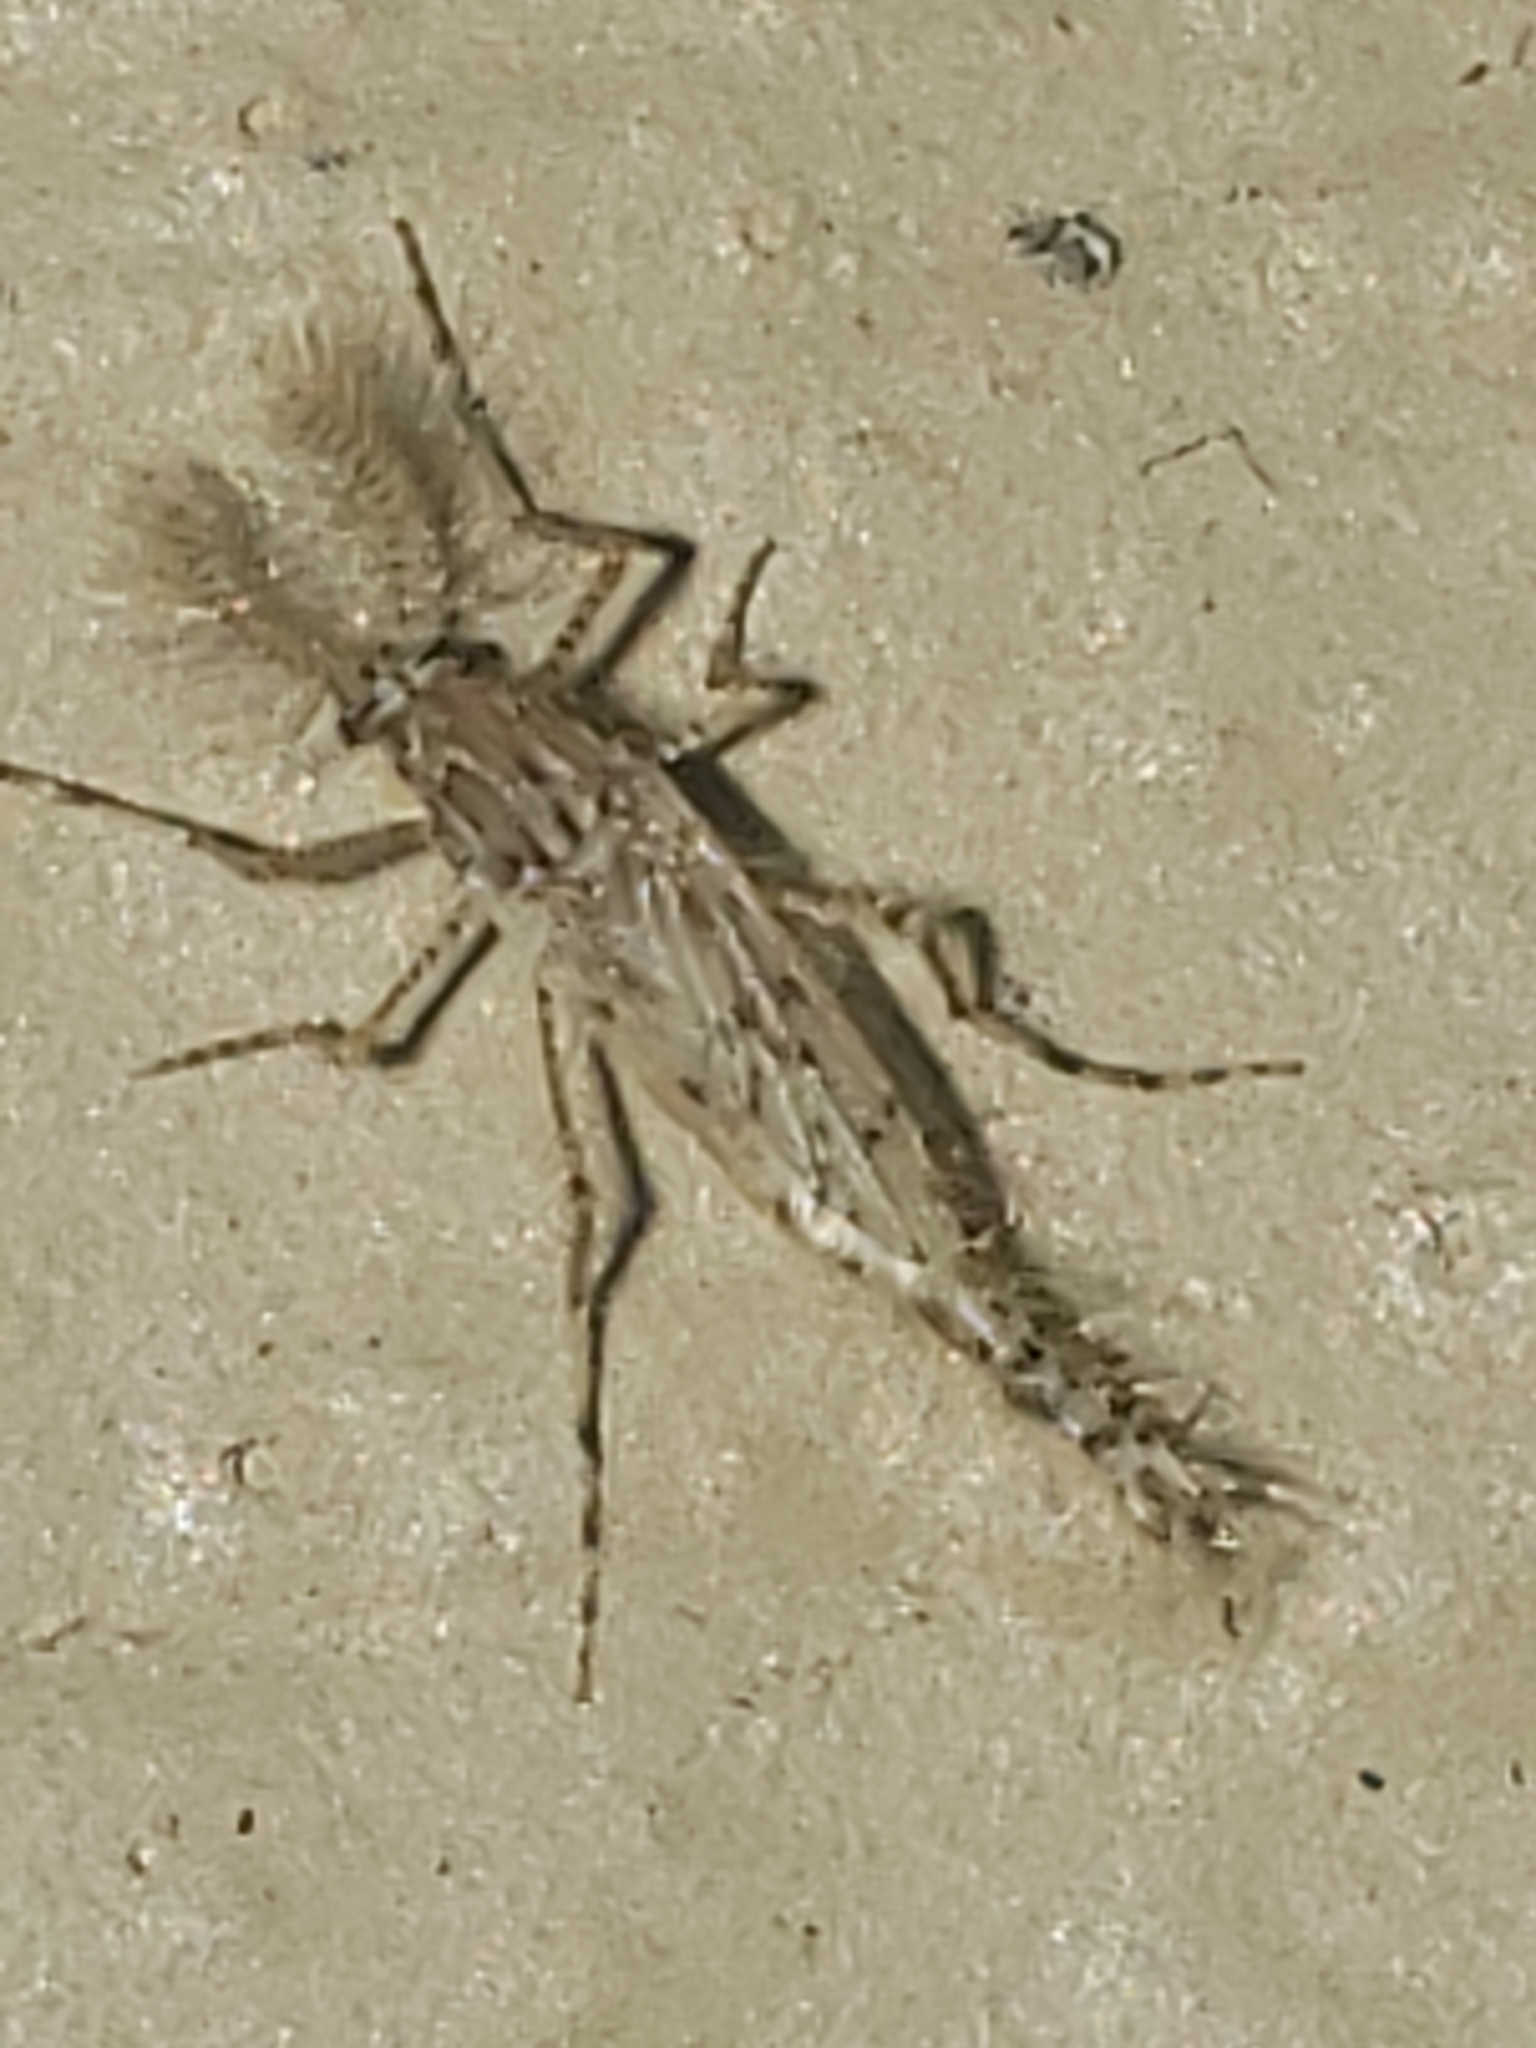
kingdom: Animalia
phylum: Arthropoda
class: Insecta
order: Diptera
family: Chaoboridae
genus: Chaoborus
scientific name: Chaoborus punctipennis
